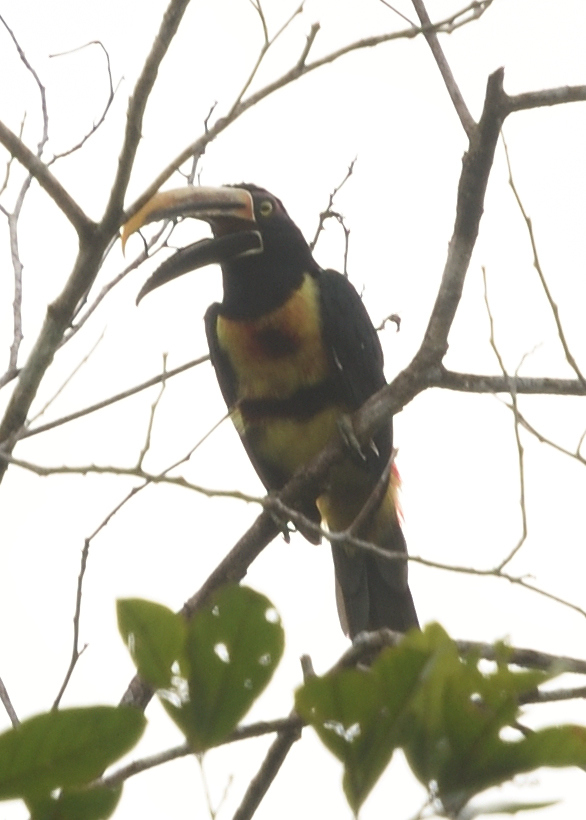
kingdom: Animalia
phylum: Chordata
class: Aves
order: Piciformes
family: Ramphastidae
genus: Pteroglossus
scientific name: Pteroglossus torquatus
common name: Collared aracari
